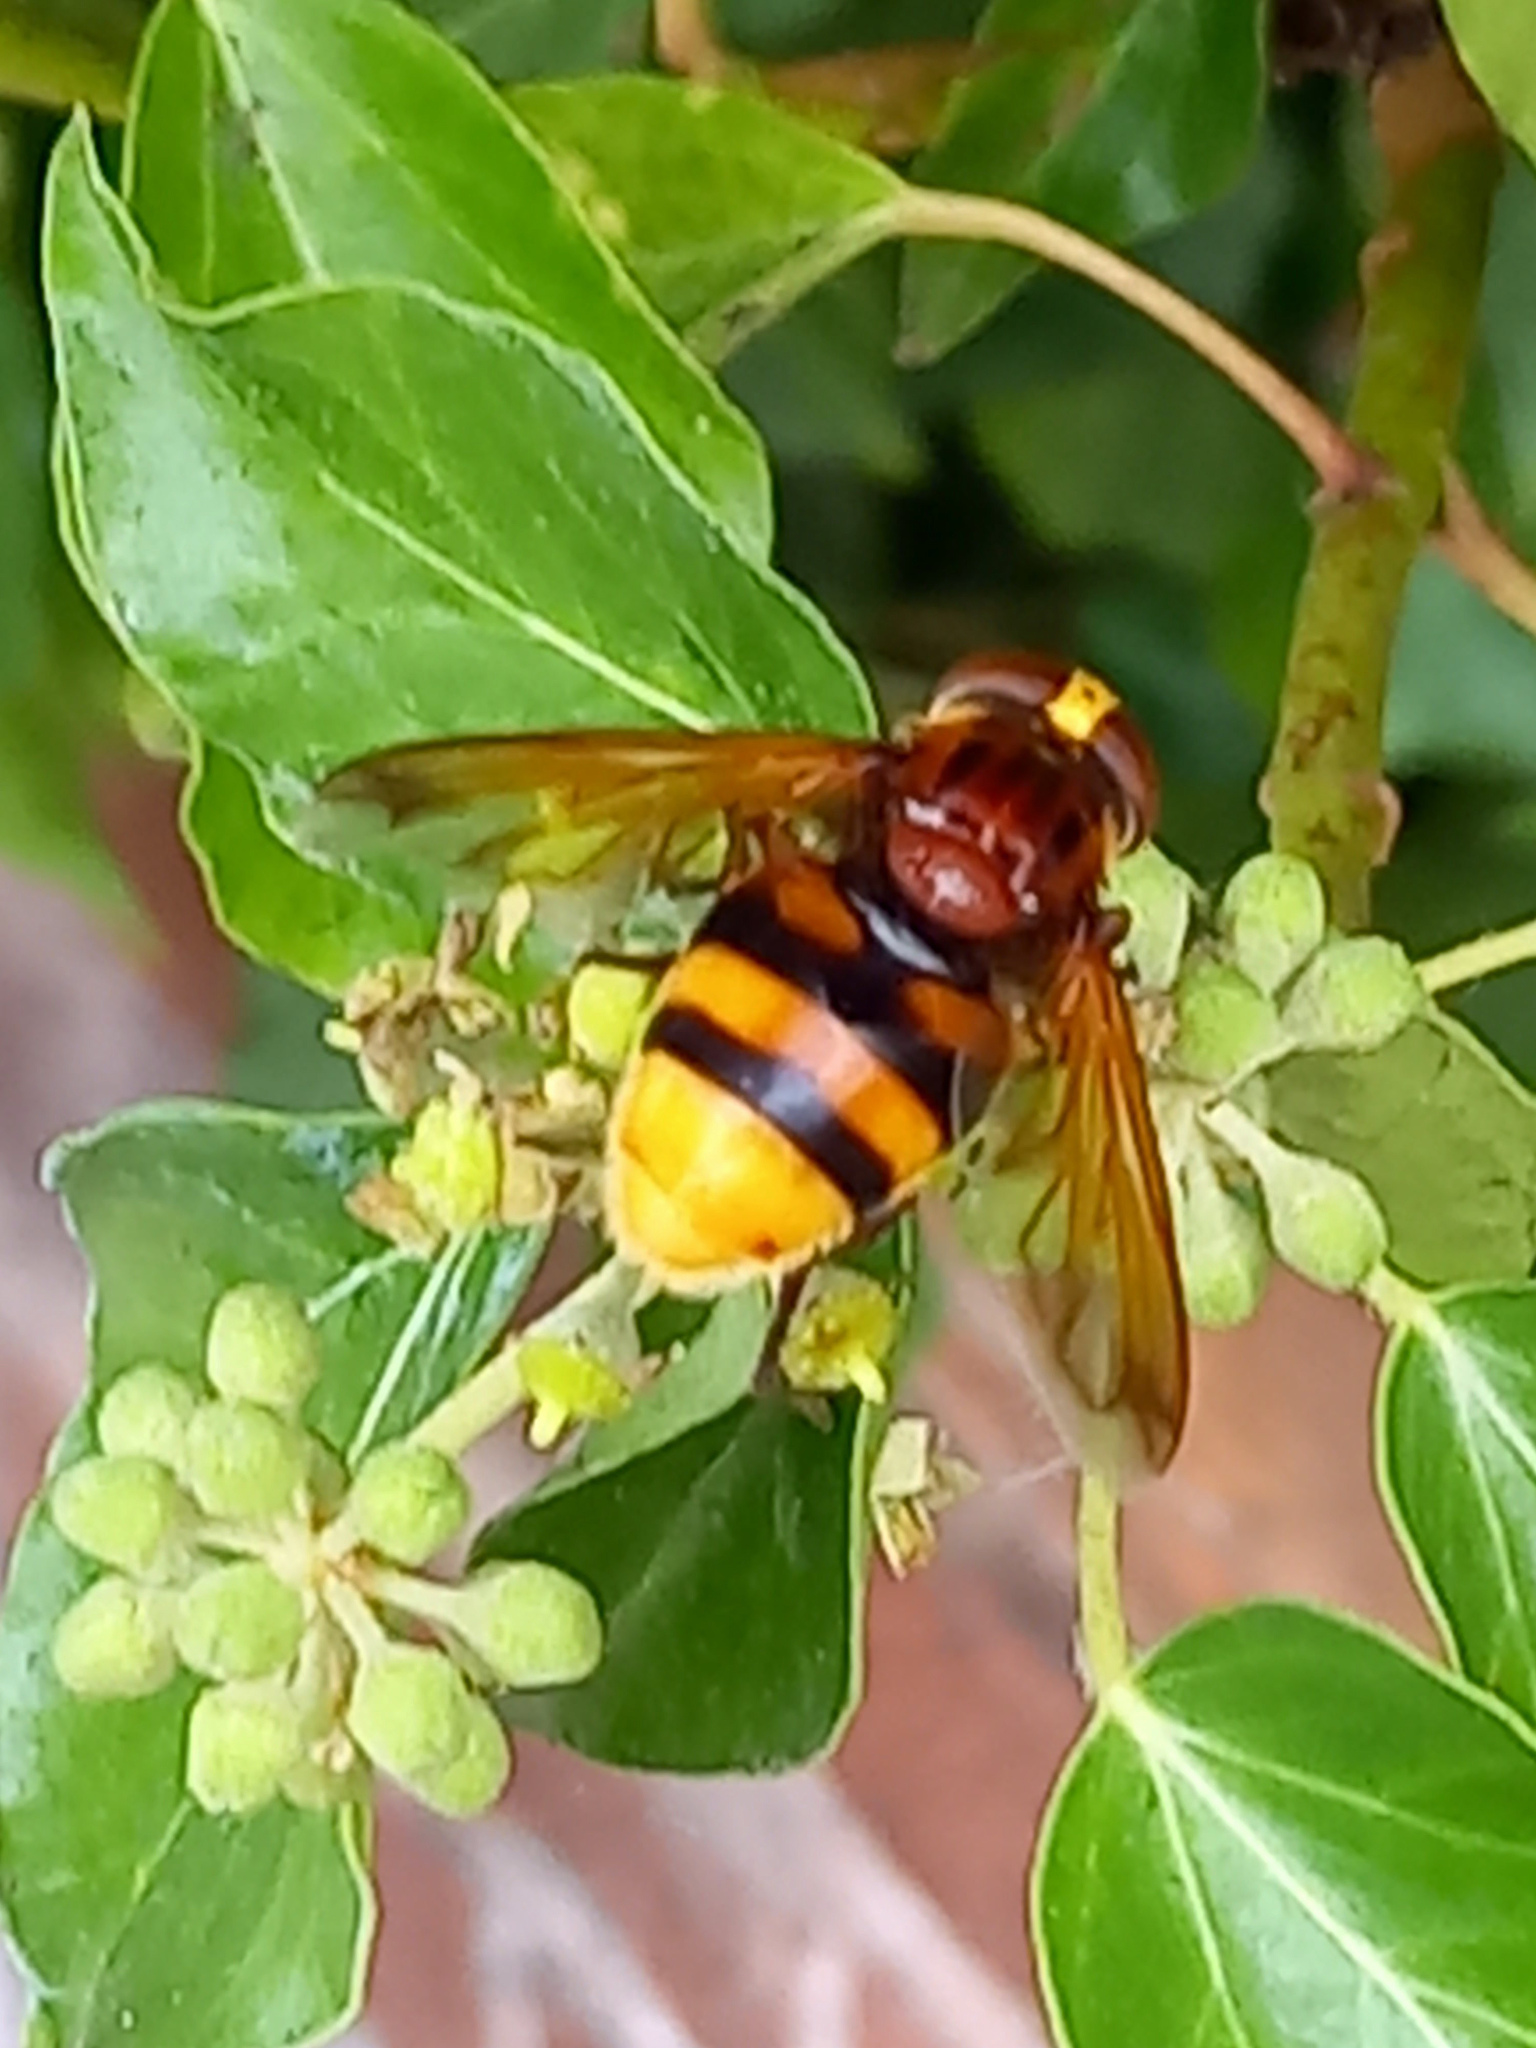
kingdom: Animalia
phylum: Arthropoda
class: Insecta
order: Diptera
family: Syrphidae
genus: Volucella
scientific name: Volucella zonaria
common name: Hornet hoverfly
